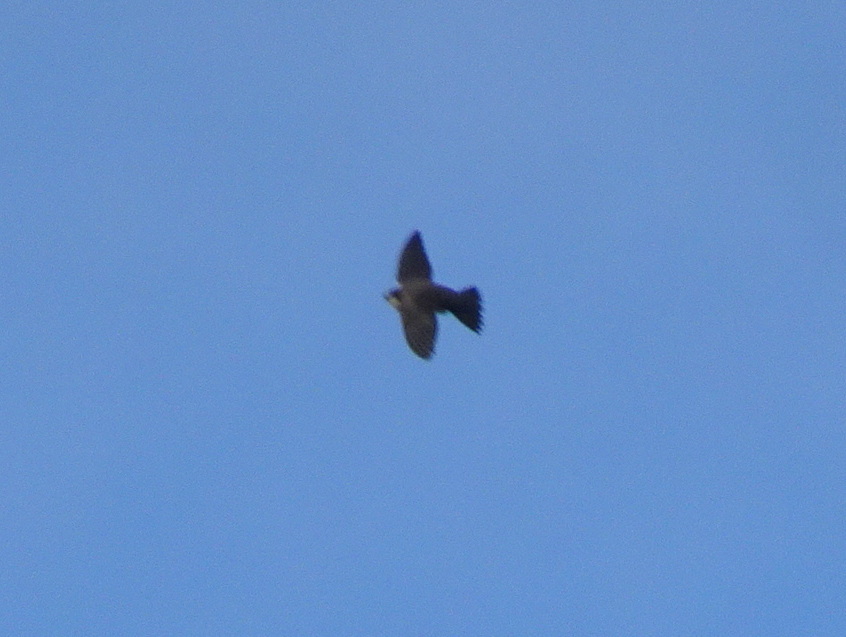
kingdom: Animalia
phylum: Chordata
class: Aves
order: Passeriformes
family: Hirundinidae
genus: Riparia
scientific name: Riparia riparia
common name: Sand martin
